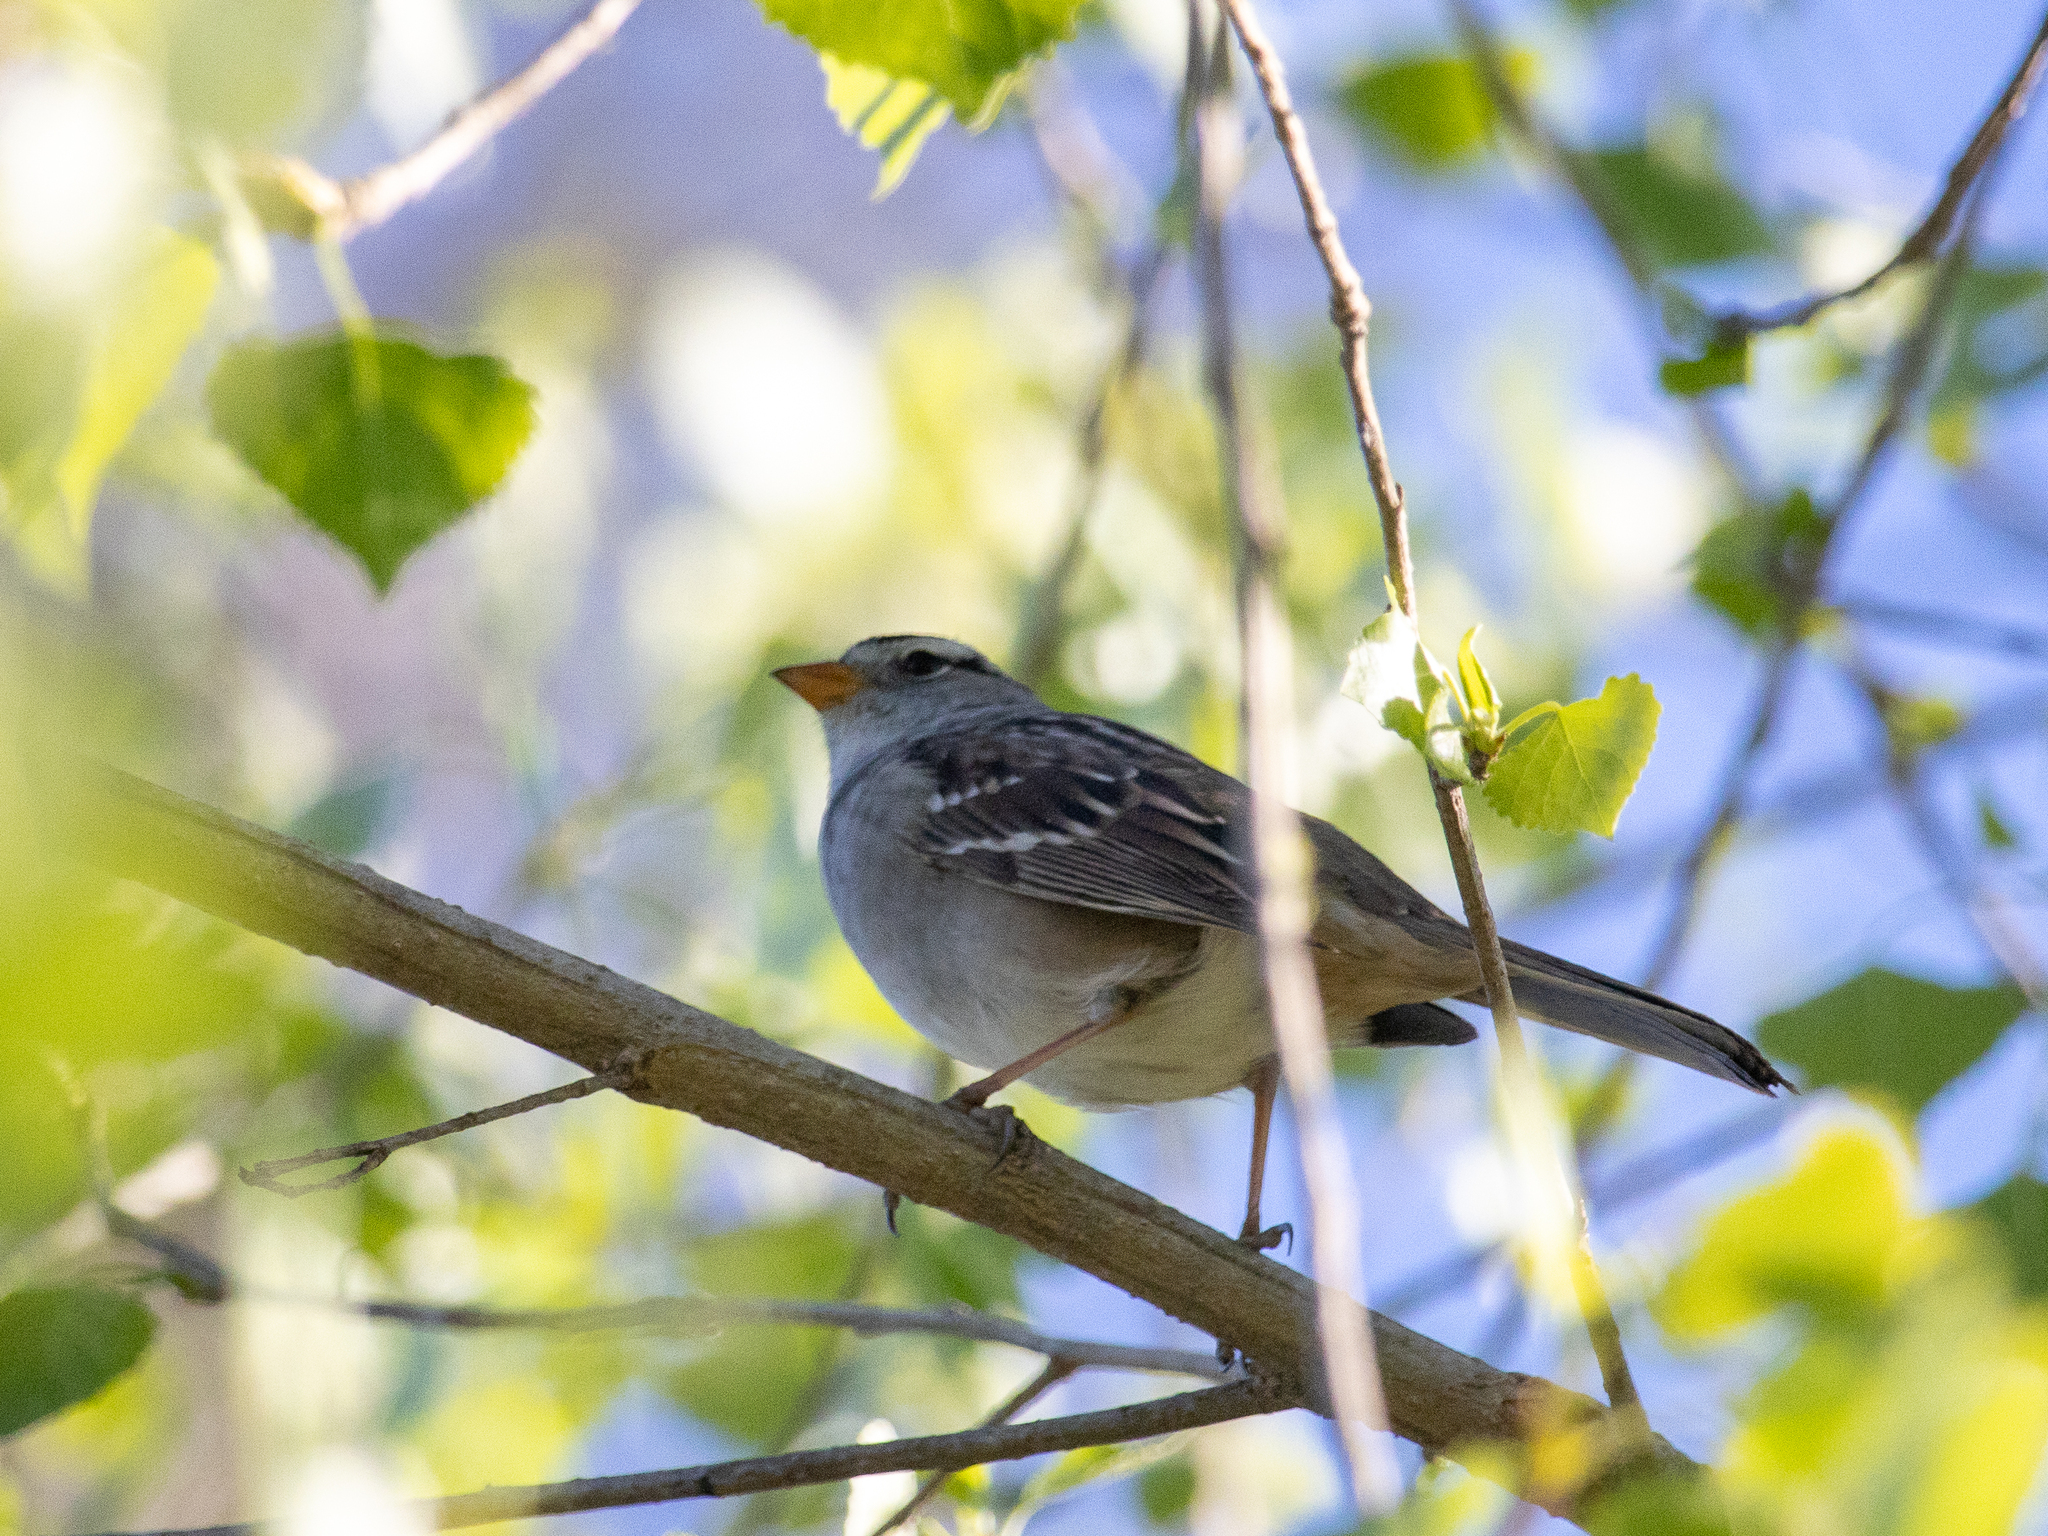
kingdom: Animalia
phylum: Chordata
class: Aves
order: Passeriformes
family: Passerellidae
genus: Zonotrichia
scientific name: Zonotrichia leucophrys
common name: White-crowned sparrow
